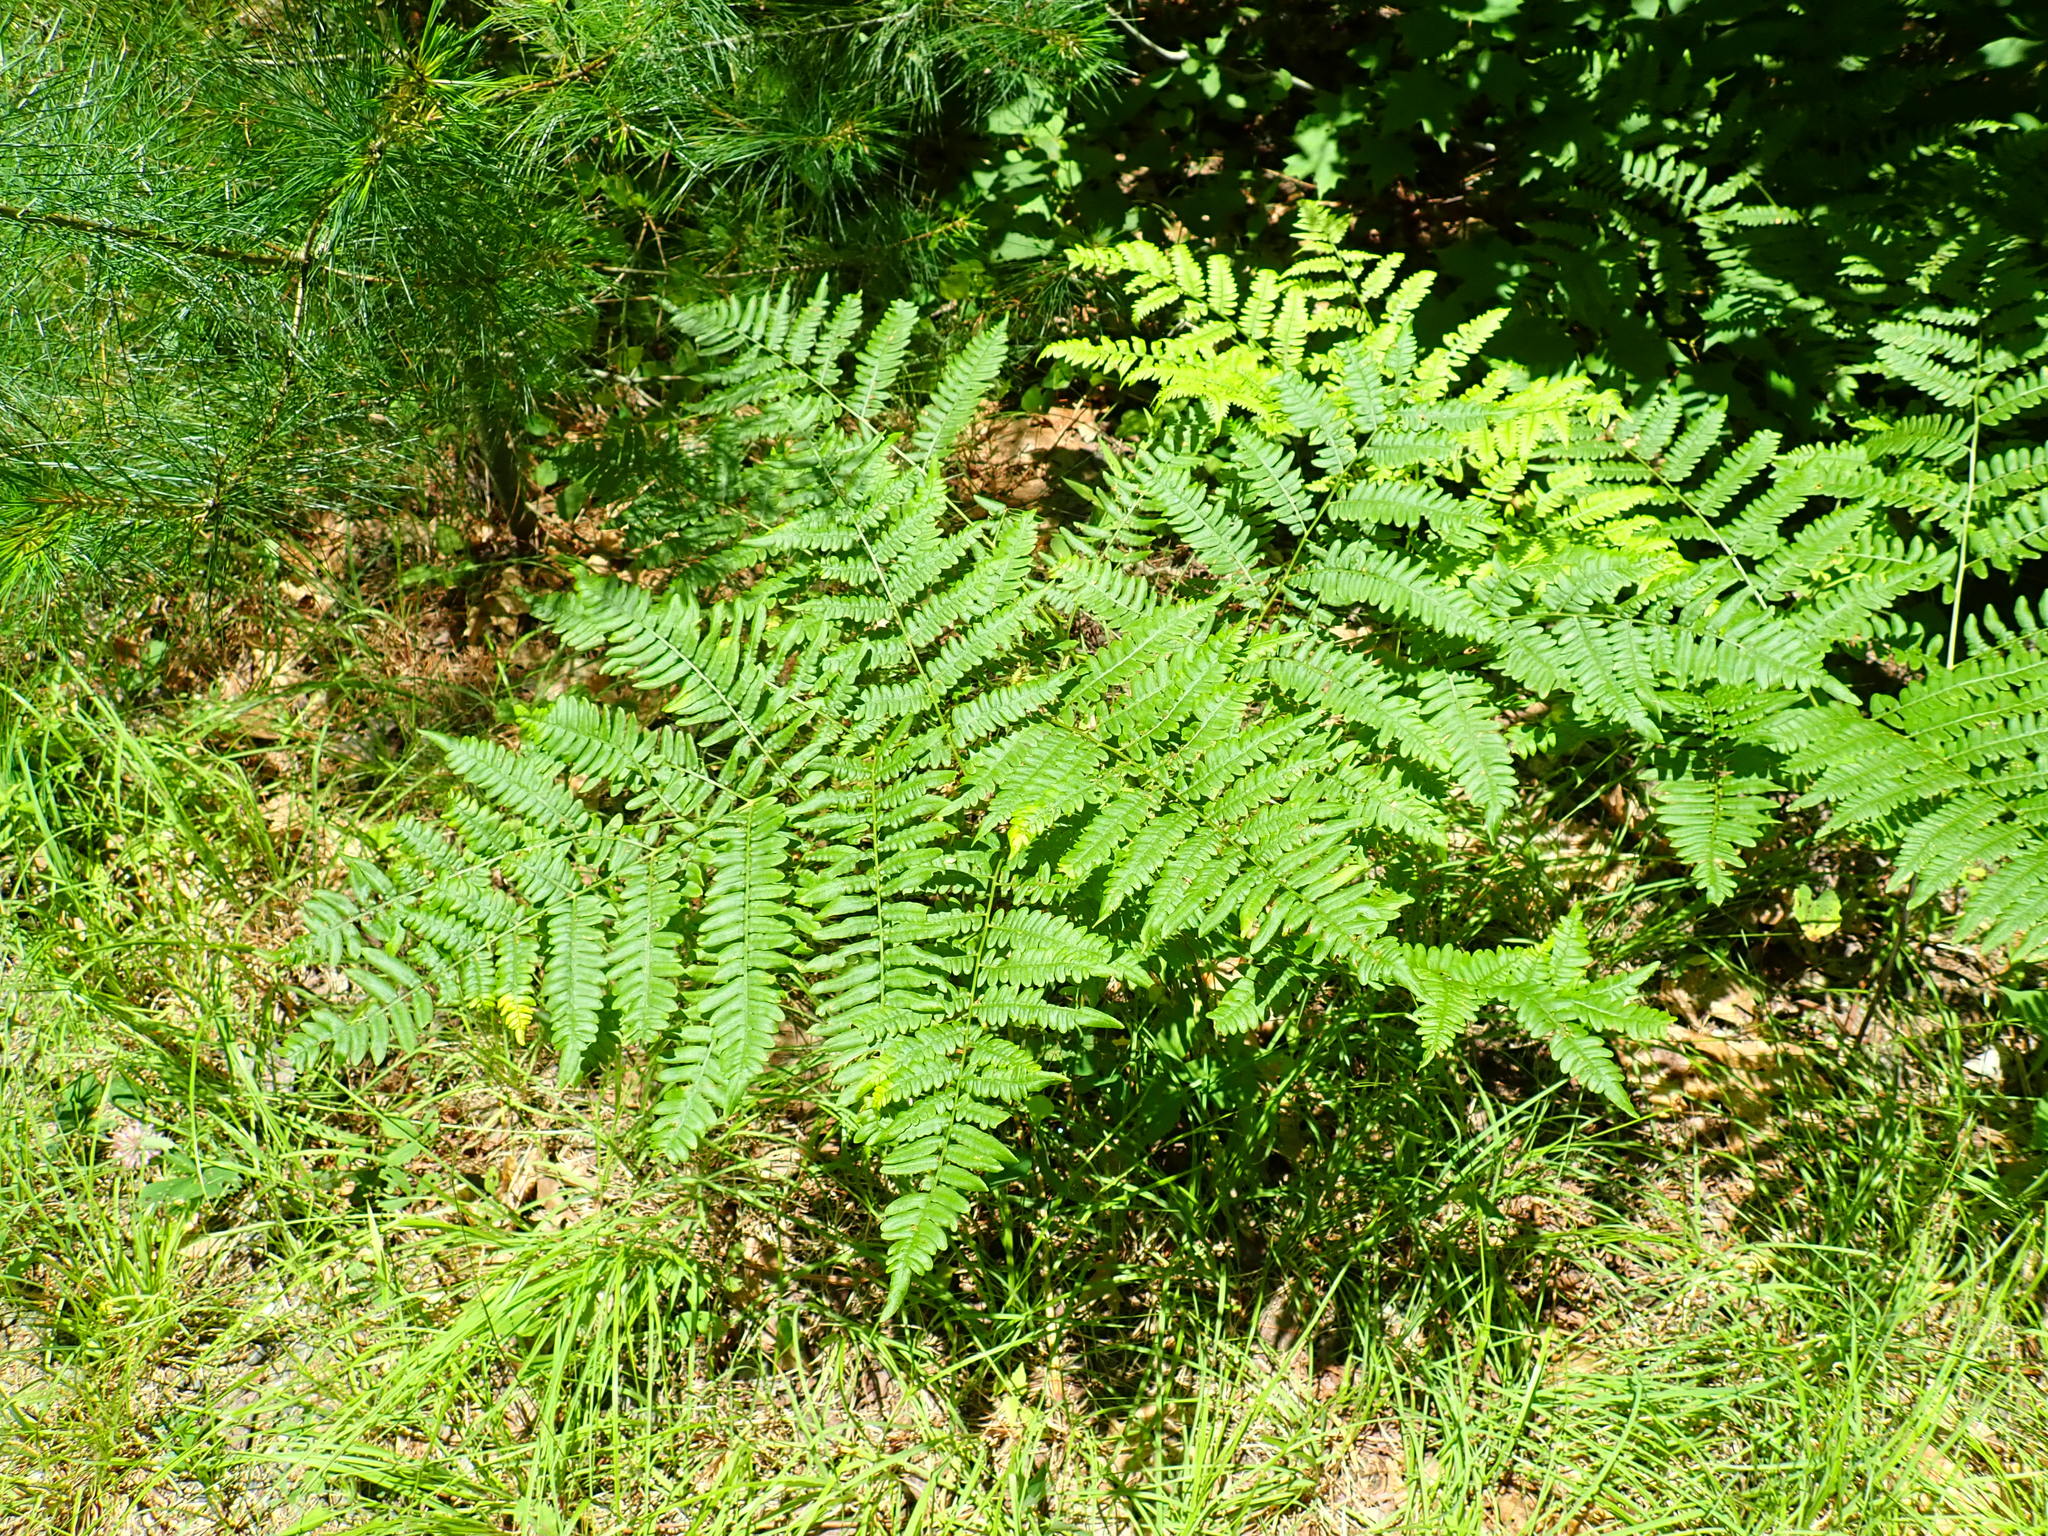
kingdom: Plantae
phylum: Tracheophyta
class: Polypodiopsida
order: Polypodiales
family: Dennstaedtiaceae
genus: Pteridium
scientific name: Pteridium aquilinum
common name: Bracken
